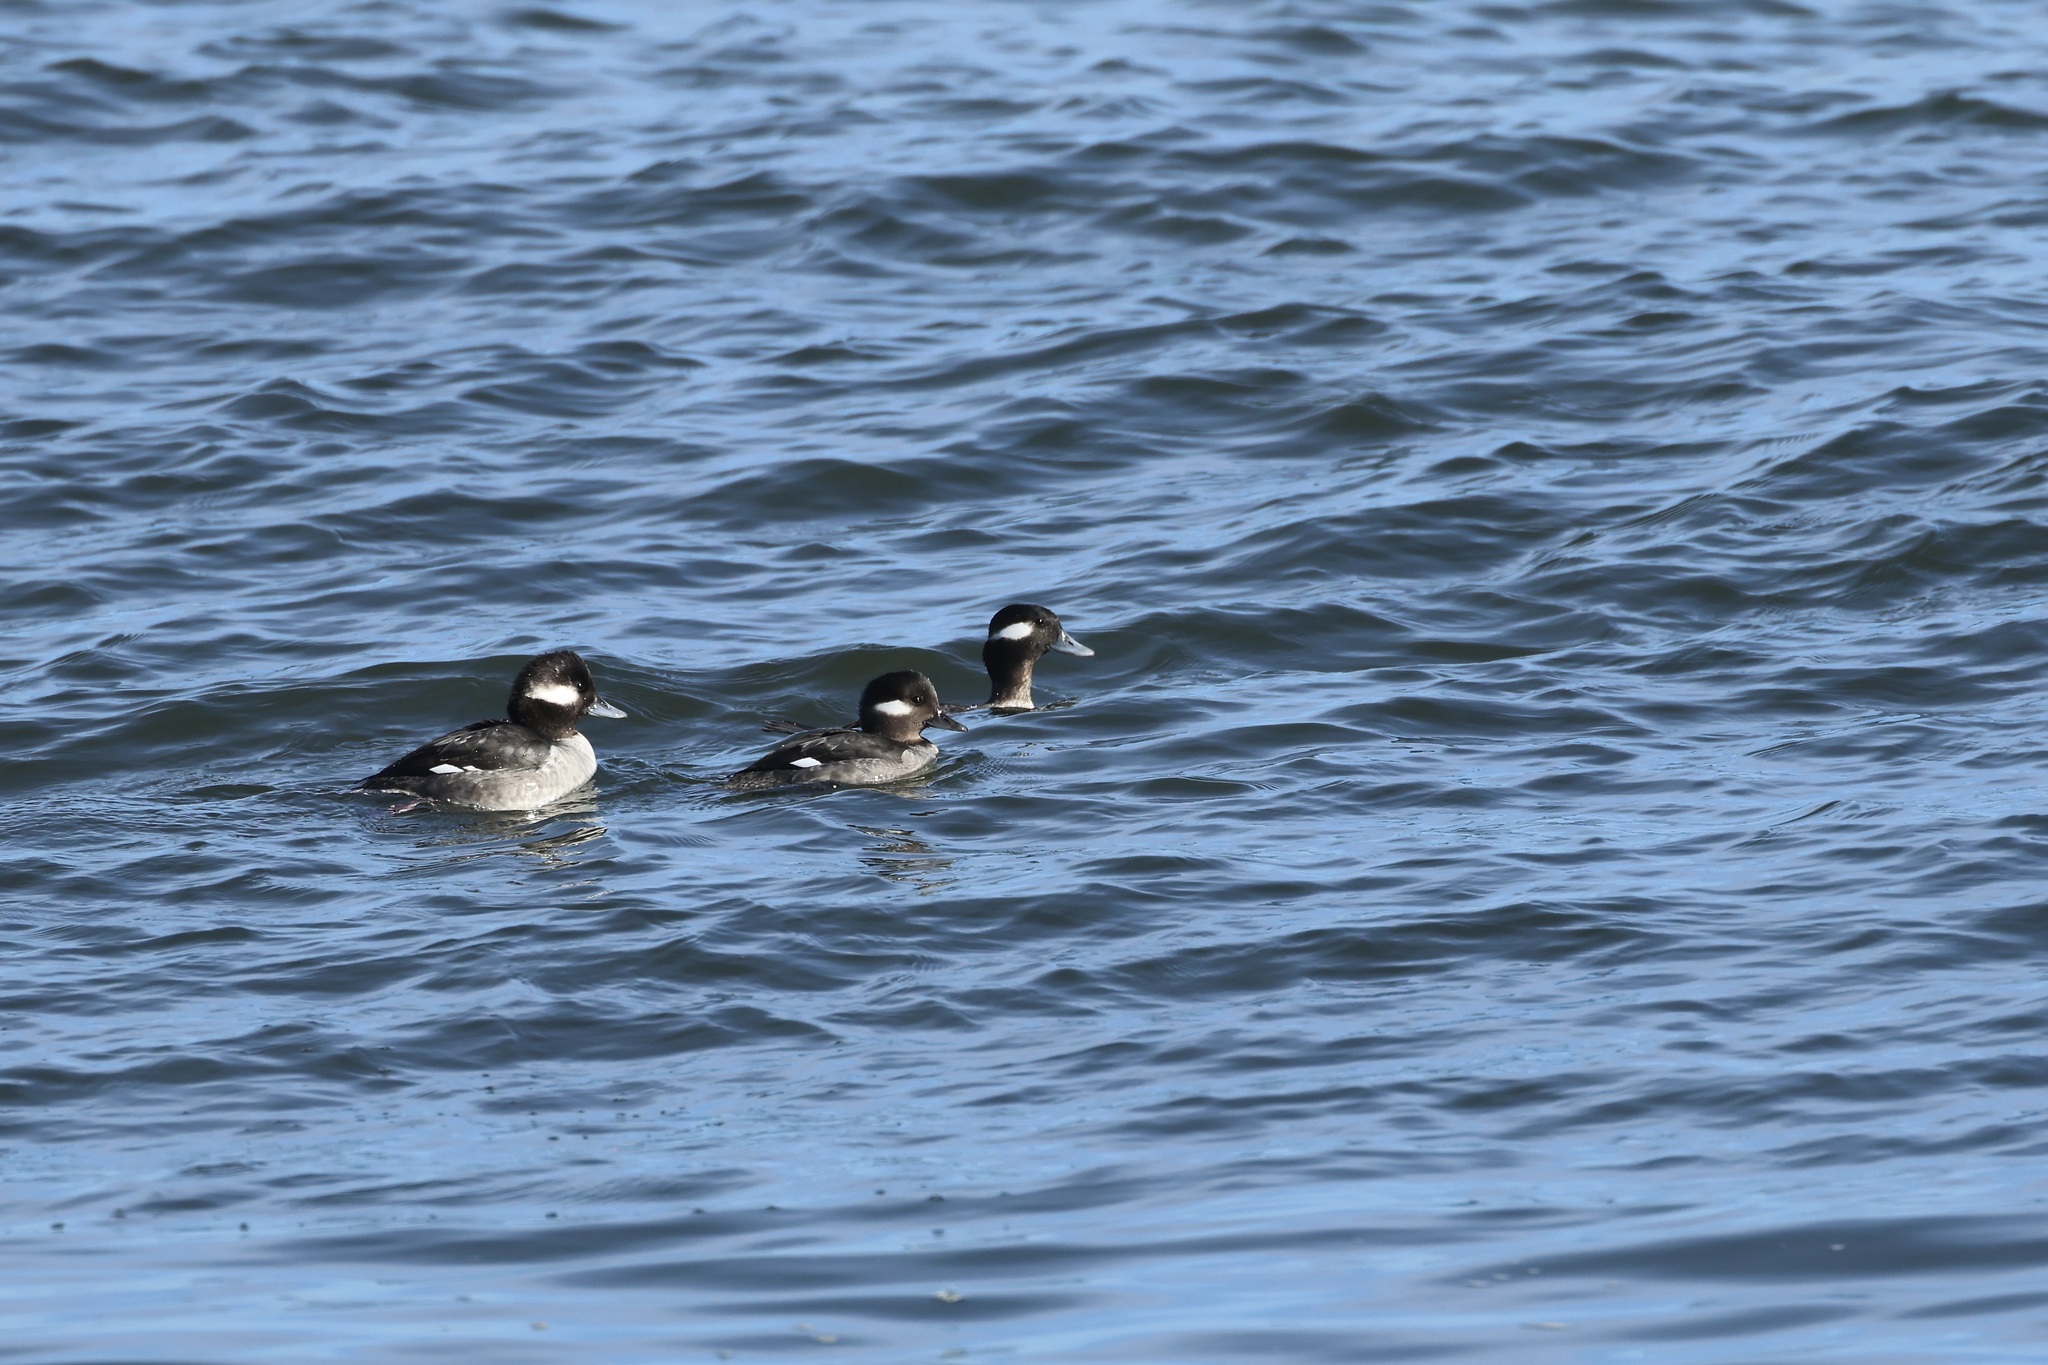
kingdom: Animalia
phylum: Chordata
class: Aves
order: Anseriformes
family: Anatidae
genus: Bucephala
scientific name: Bucephala albeola
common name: Bufflehead
